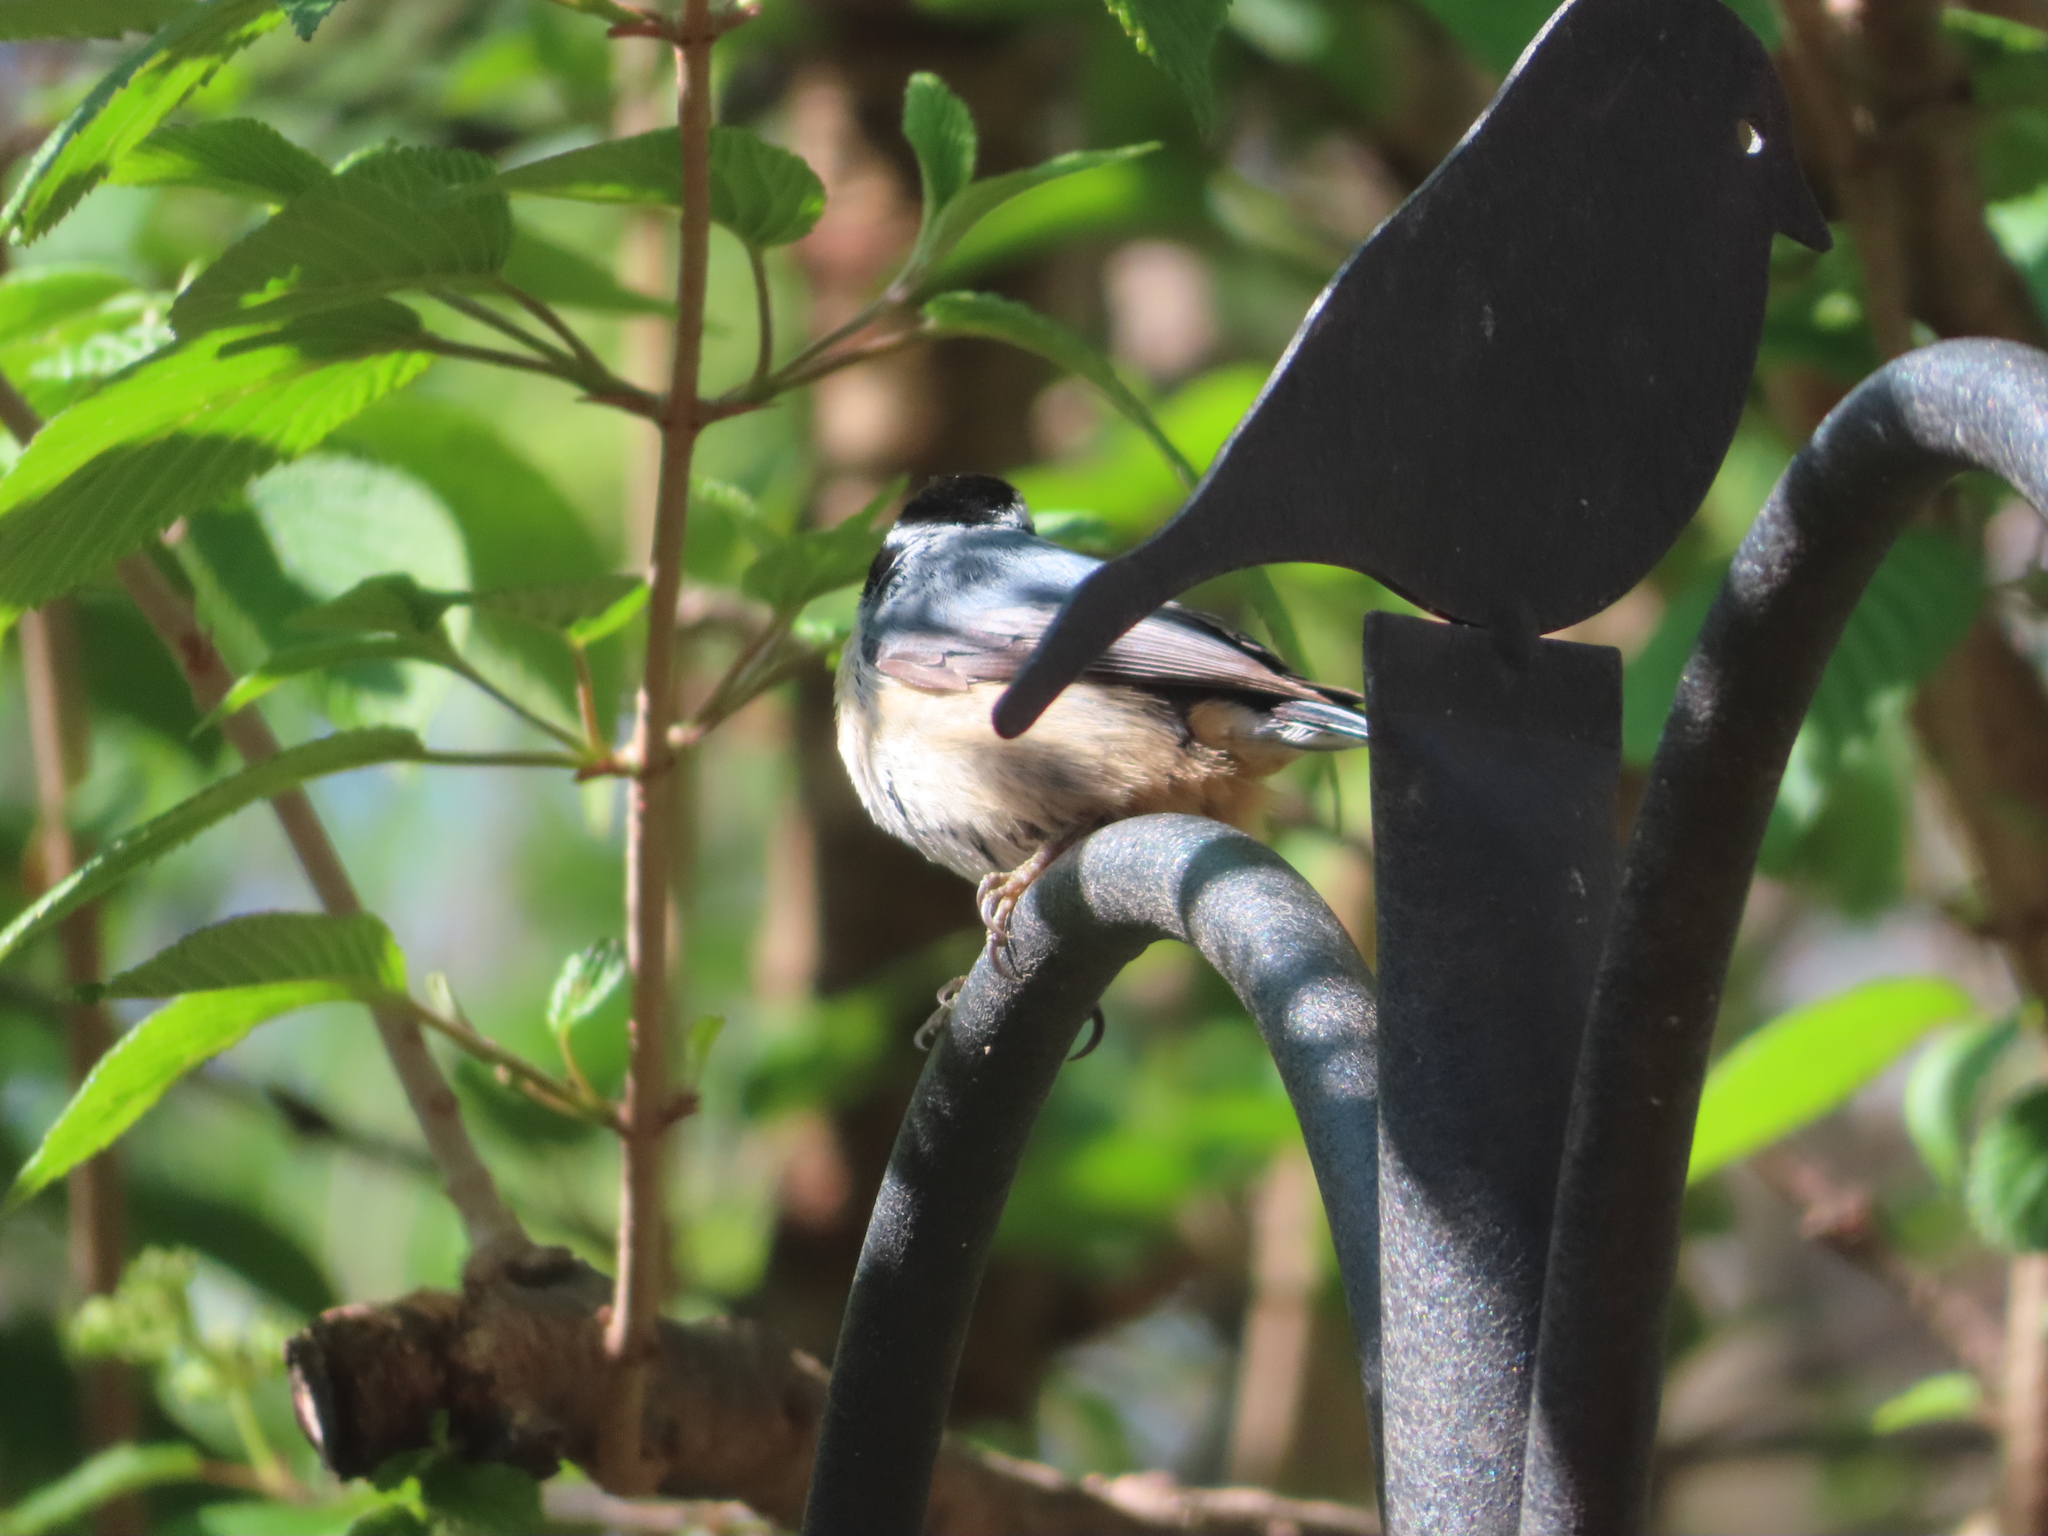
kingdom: Animalia
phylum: Chordata
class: Aves
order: Passeriformes
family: Sittidae
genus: Sitta
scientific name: Sitta canadensis
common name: Red-breasted nuthatch
